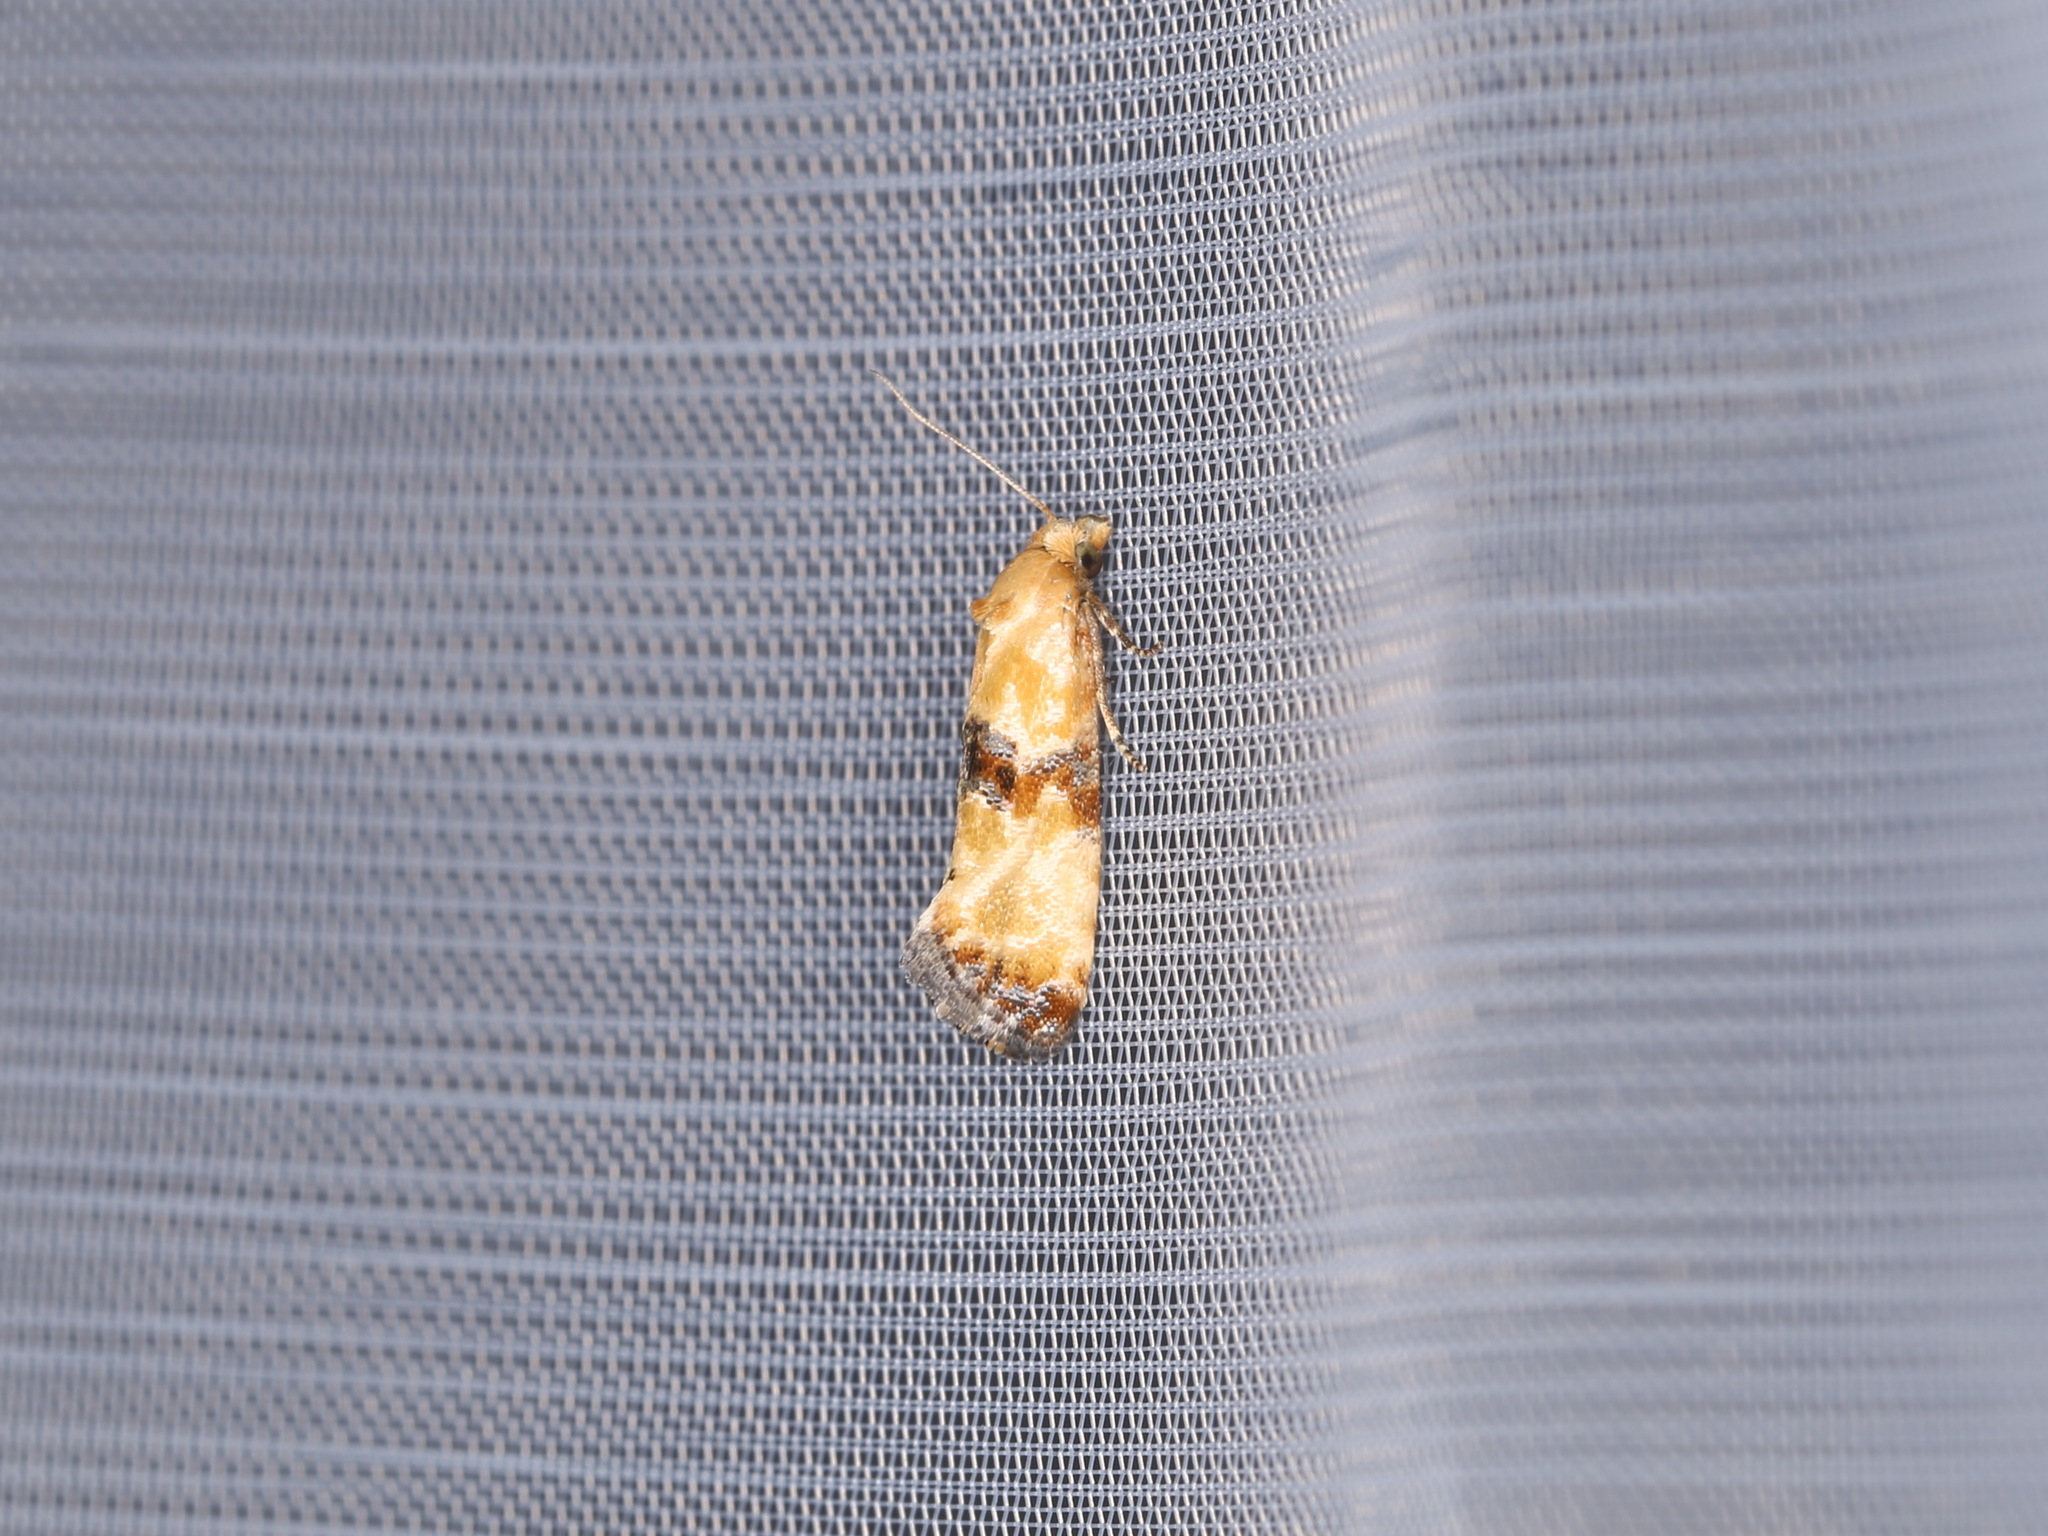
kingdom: Animalia
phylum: Arthropoda
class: Insecta
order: Lepidoptera
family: Tortricidae
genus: Eupoecilia
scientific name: Eupoecilia angustana
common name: Marbled conch
